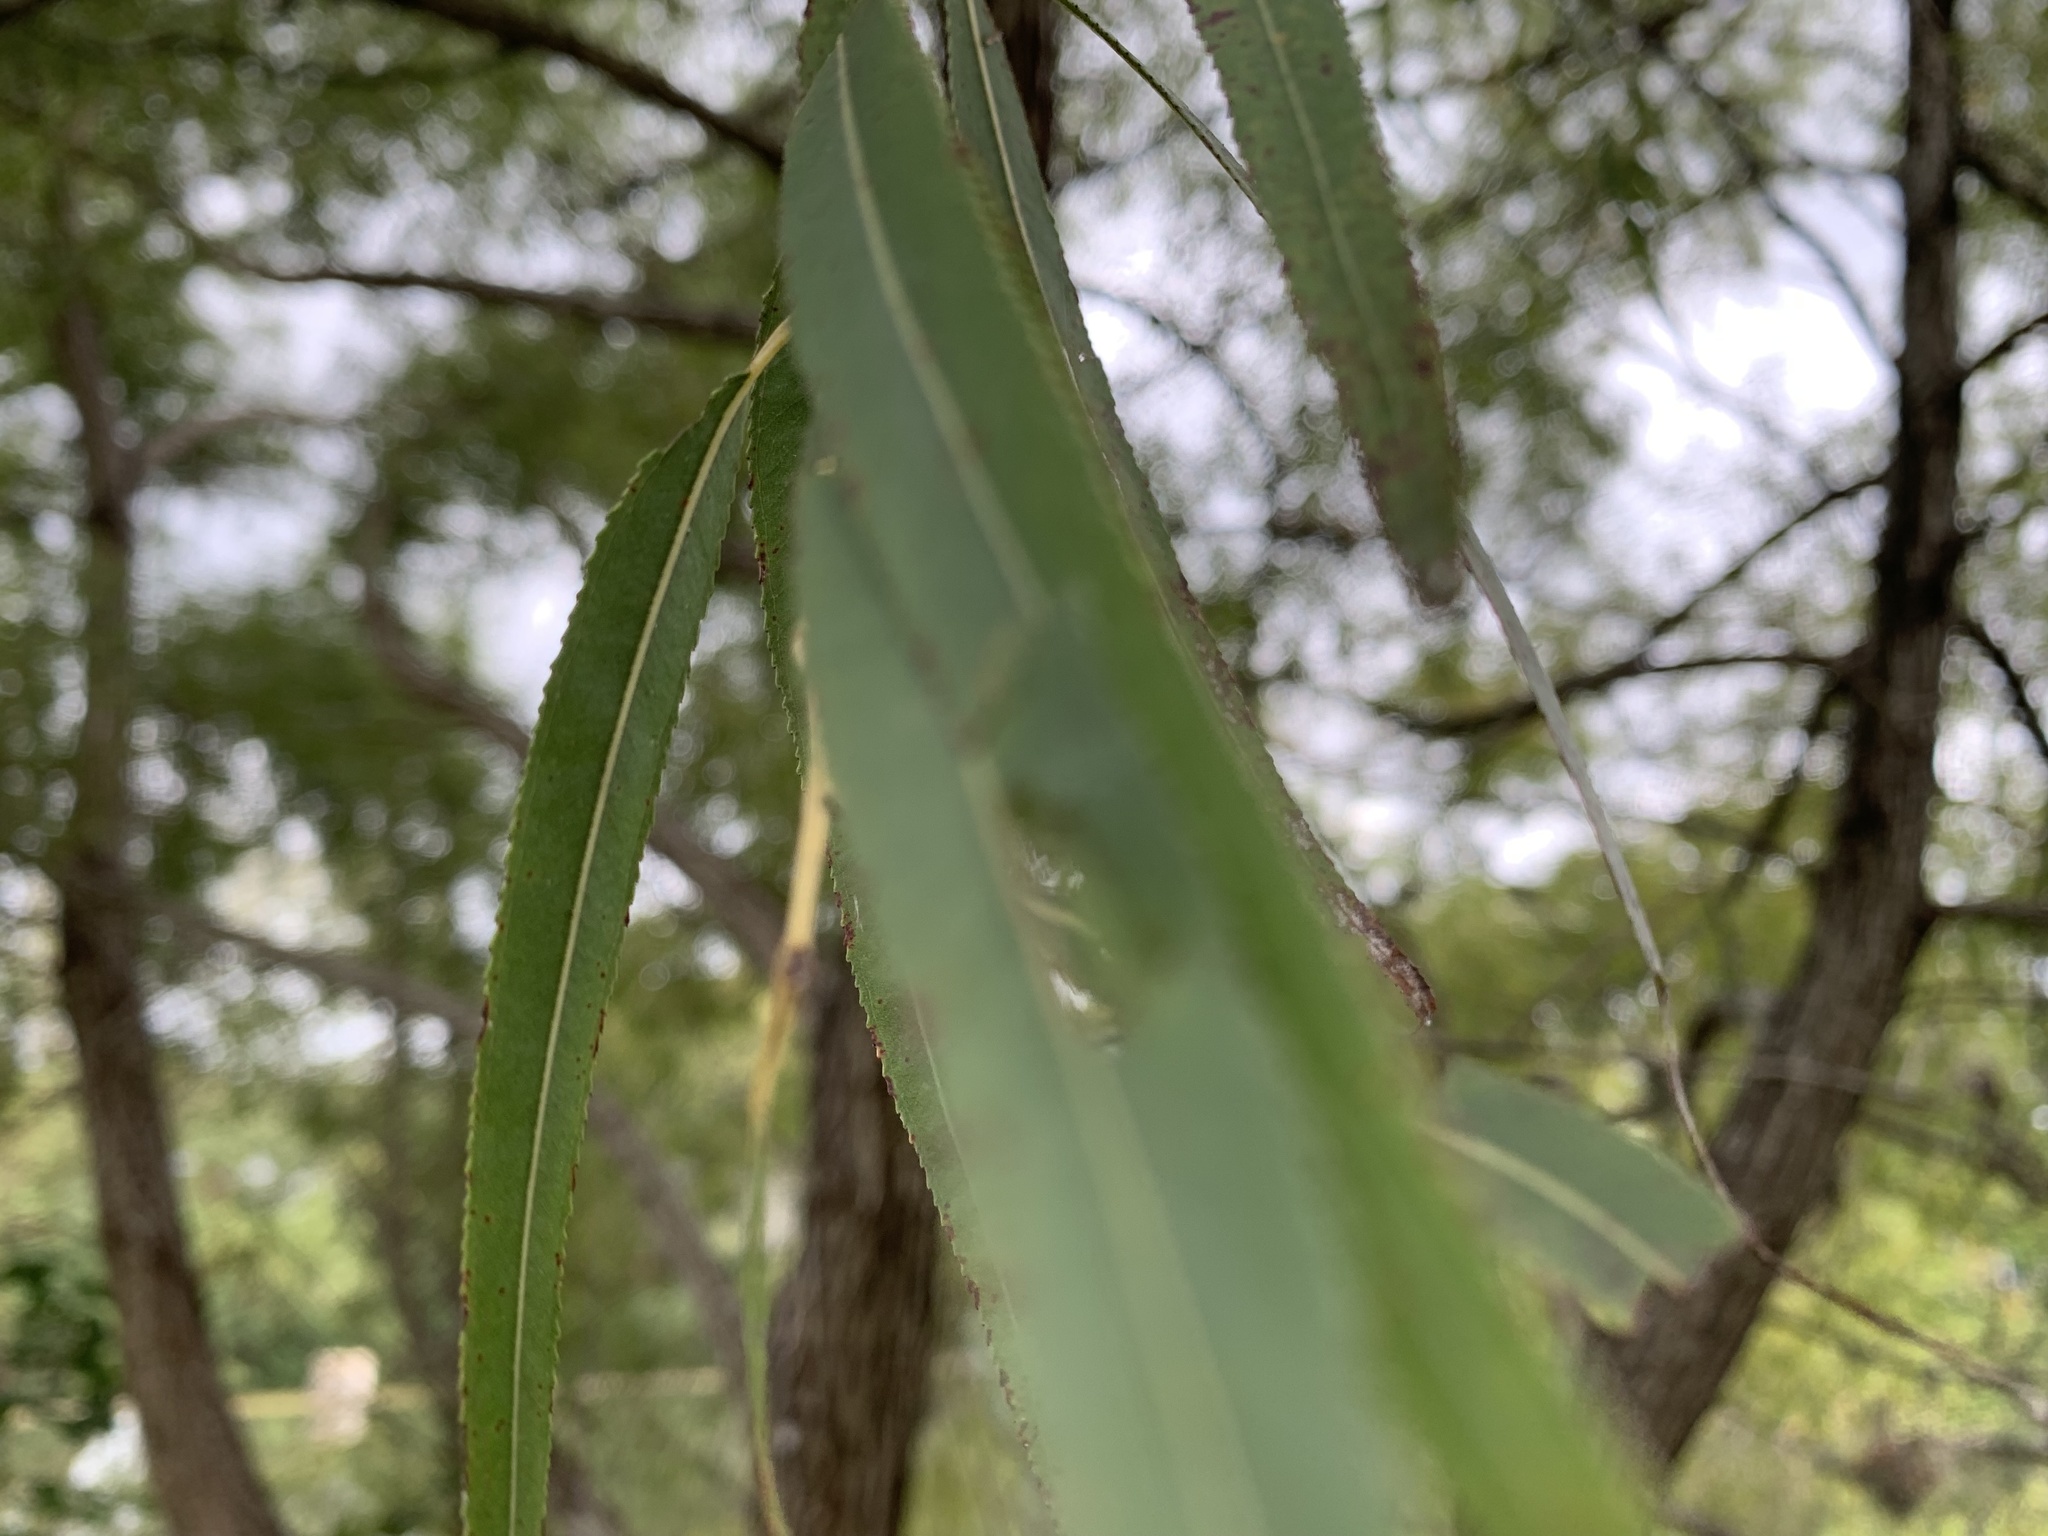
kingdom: Plantae
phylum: Tracheophyta
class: Magnoliopsida
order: Malpighiales
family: Salicaceae
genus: Salix
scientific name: Salix nigra
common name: Black willow
